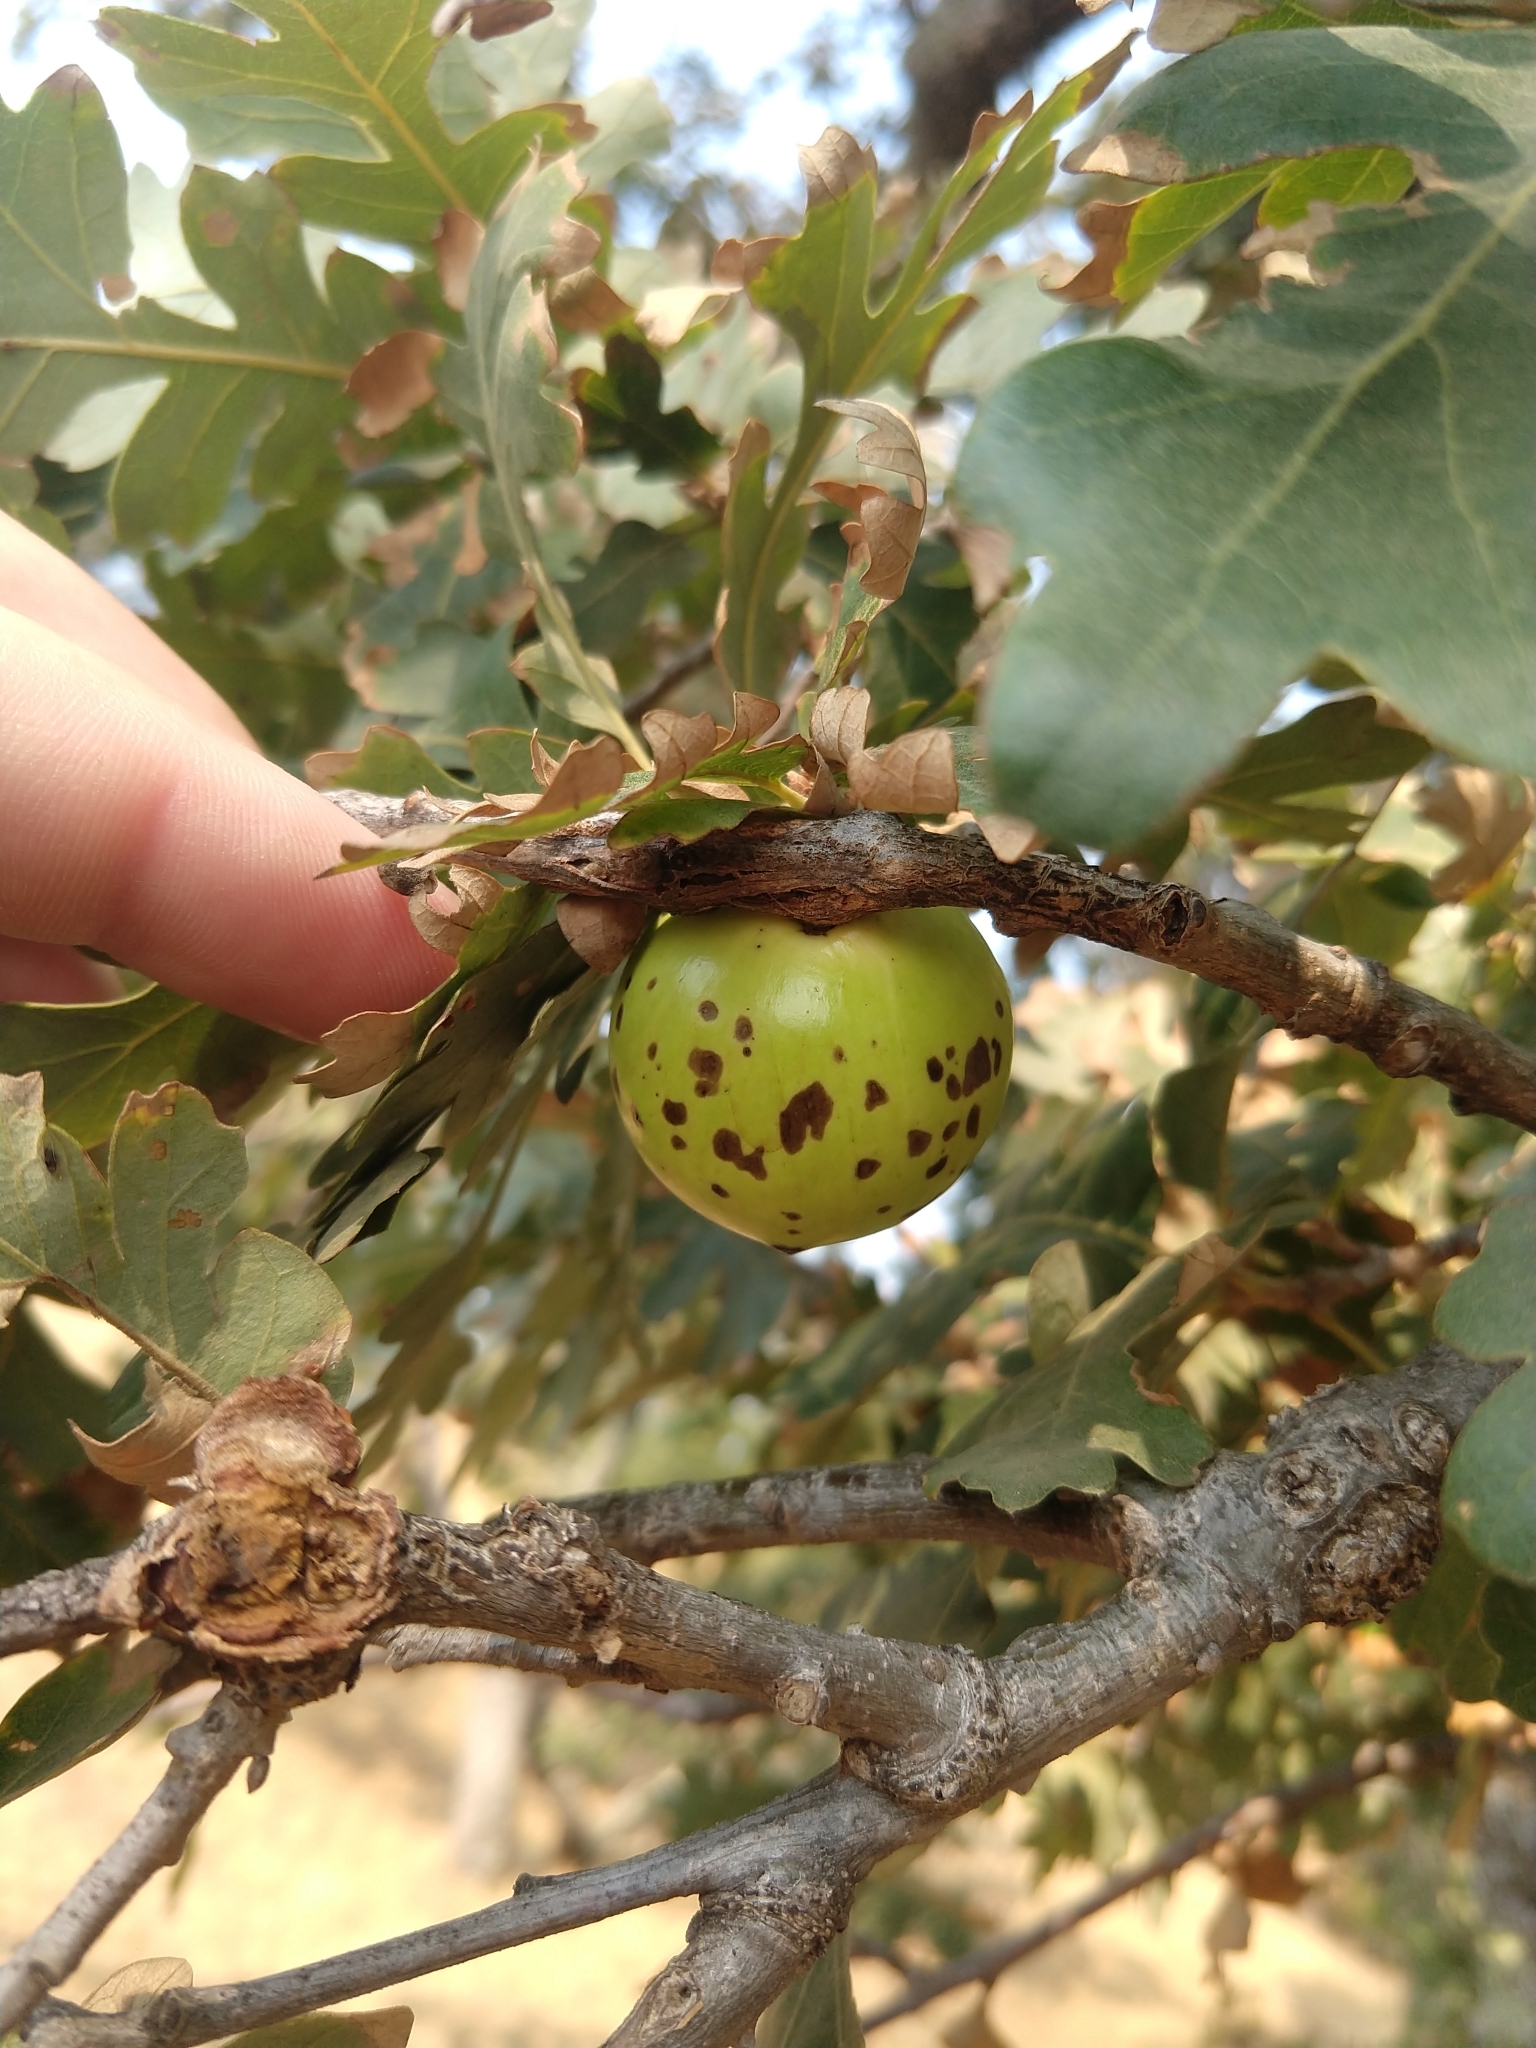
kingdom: Animalia
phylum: Arthropoda
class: Insecta
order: Hymenoptera
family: Cynipidae
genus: Andricus
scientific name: Andricus quercuscalifornicus
